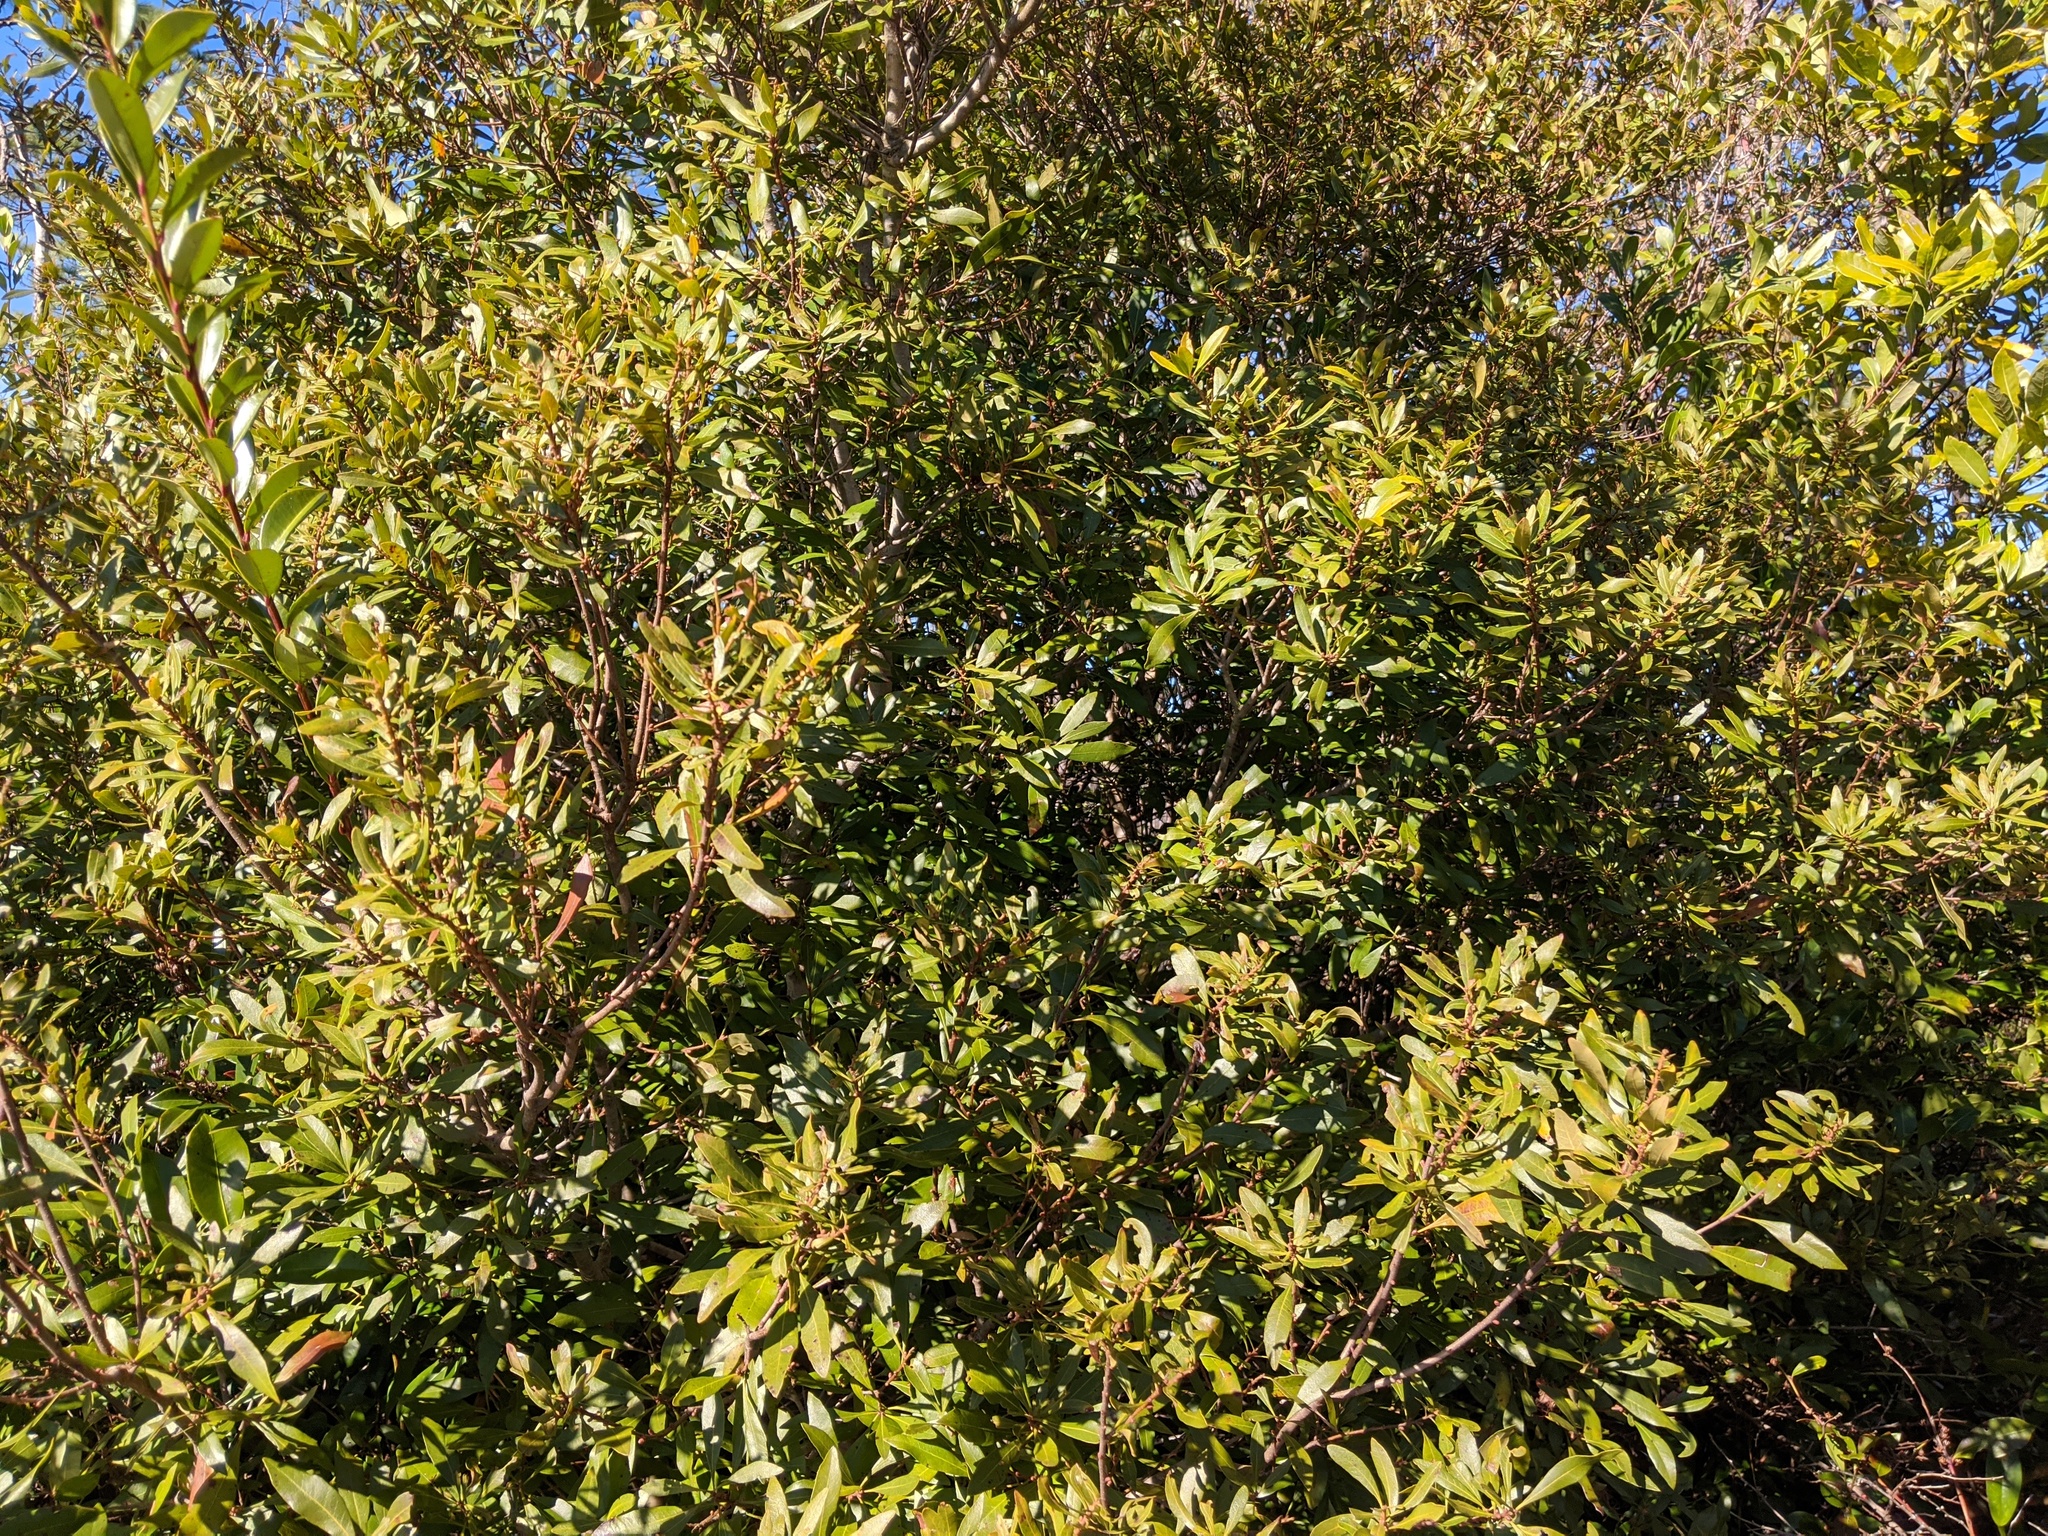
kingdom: Plantae
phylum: Tracheophyta
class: Magnoliopsida
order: Fagales
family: Myricaceae
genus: Morella
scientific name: Morella cerifera
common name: Wax myrtle
